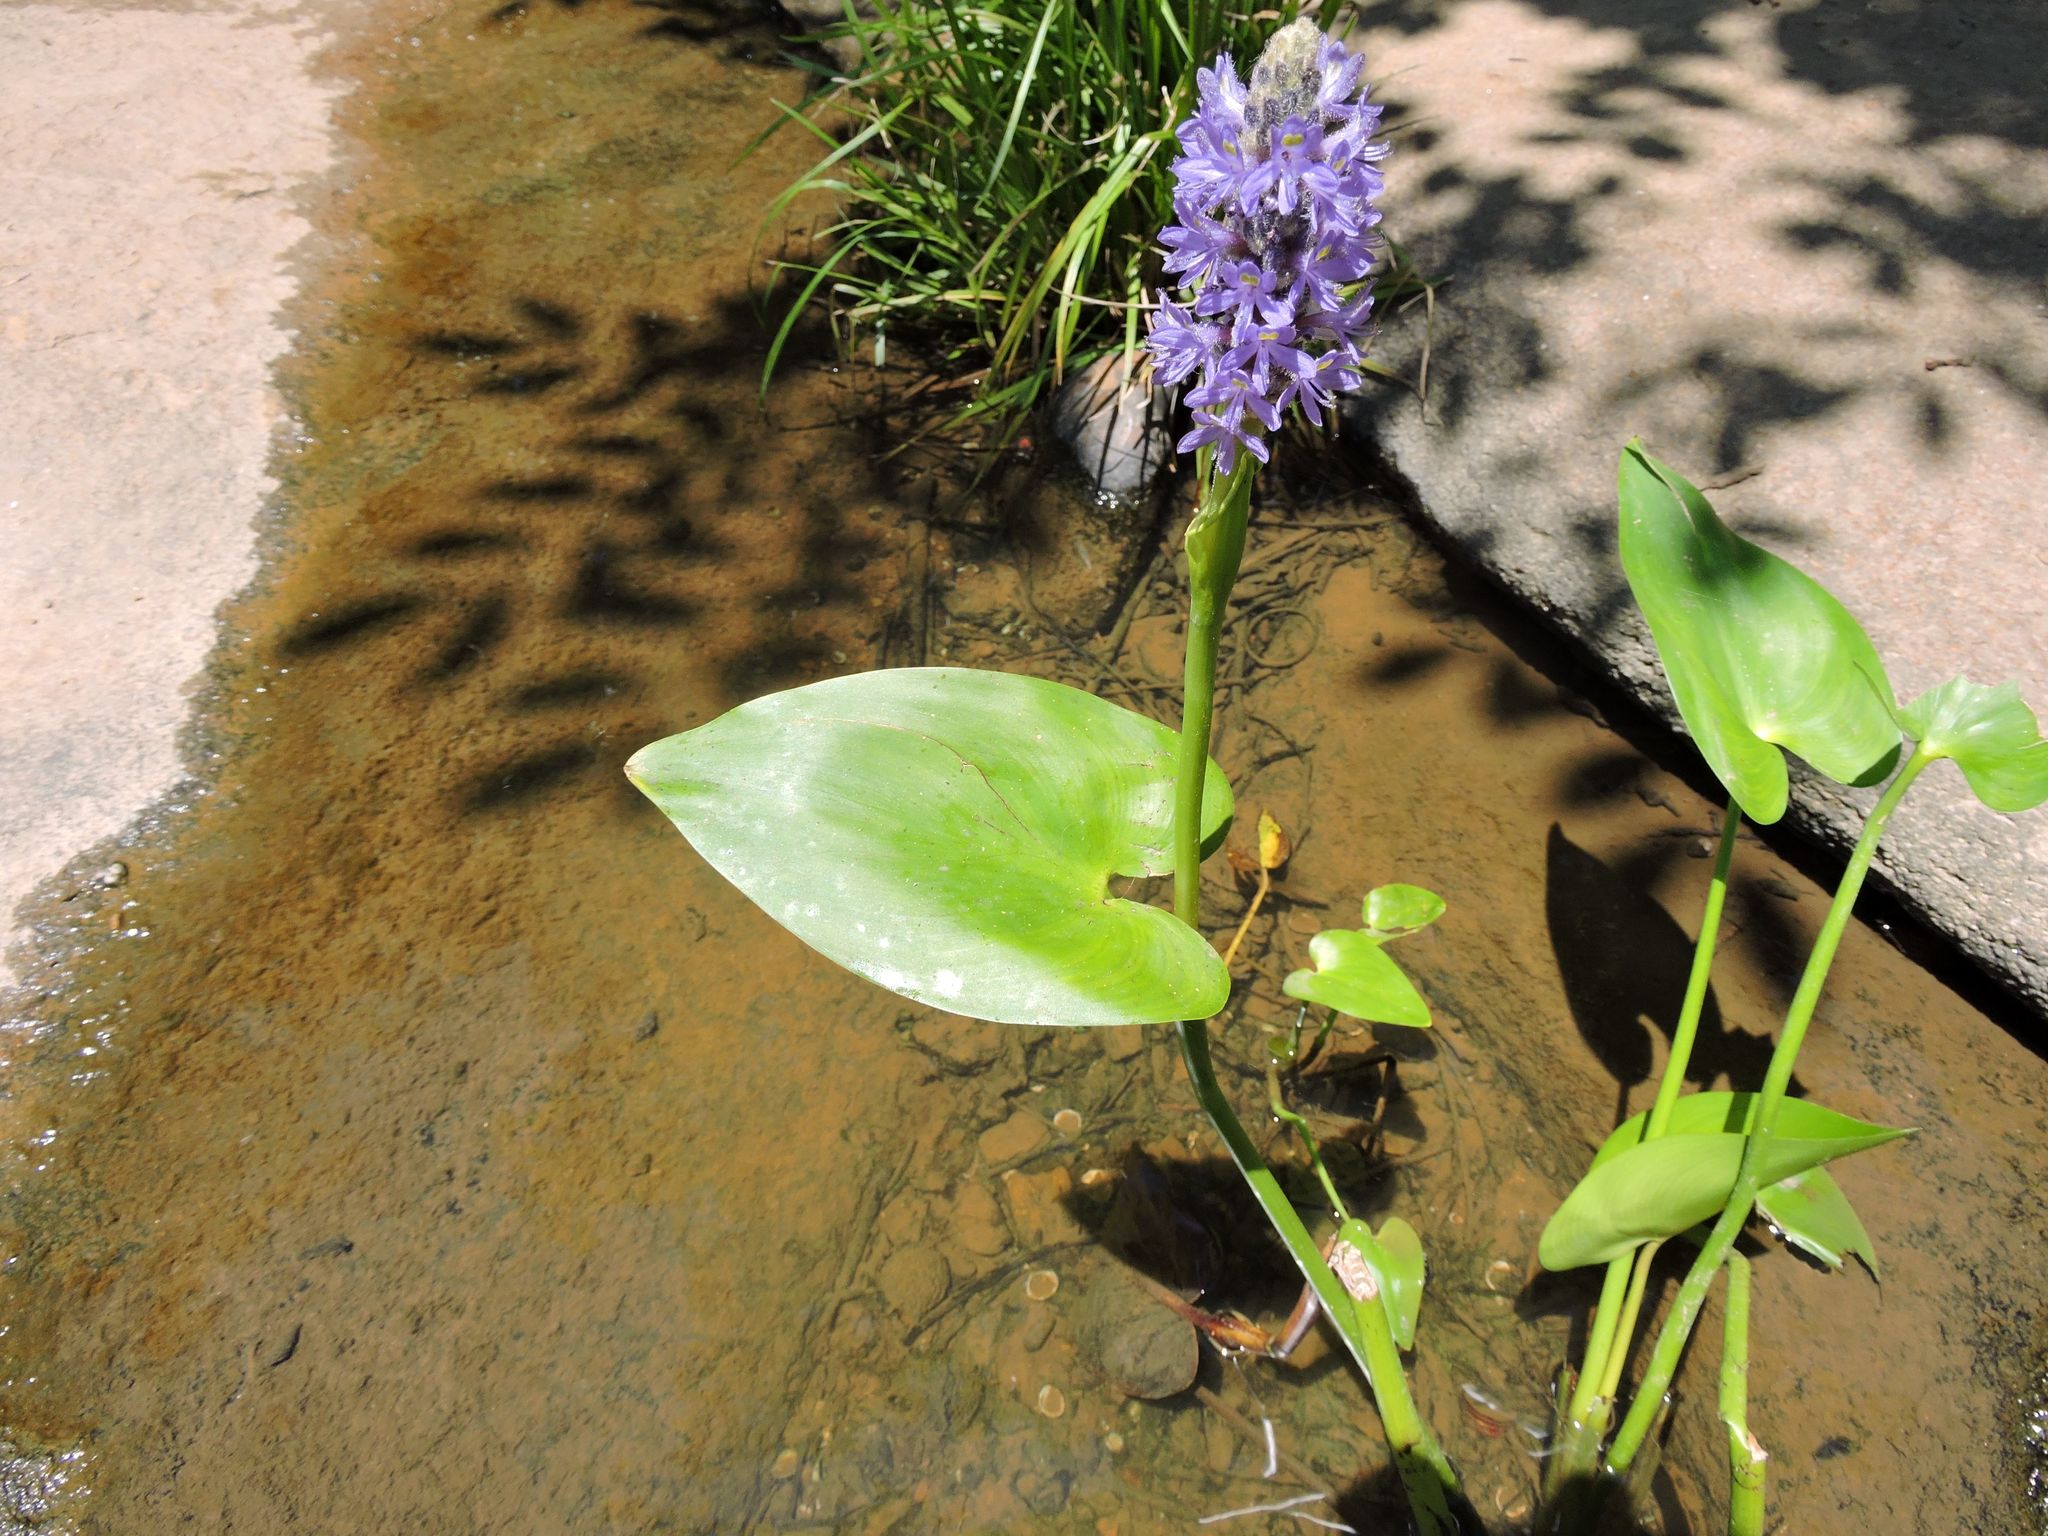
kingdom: Plantae
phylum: Tracheophyta
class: Liliopsida
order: Commelinales
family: Pontederiaceae
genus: Pontederia
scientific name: Pontederia cordata
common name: Pickerelweed
